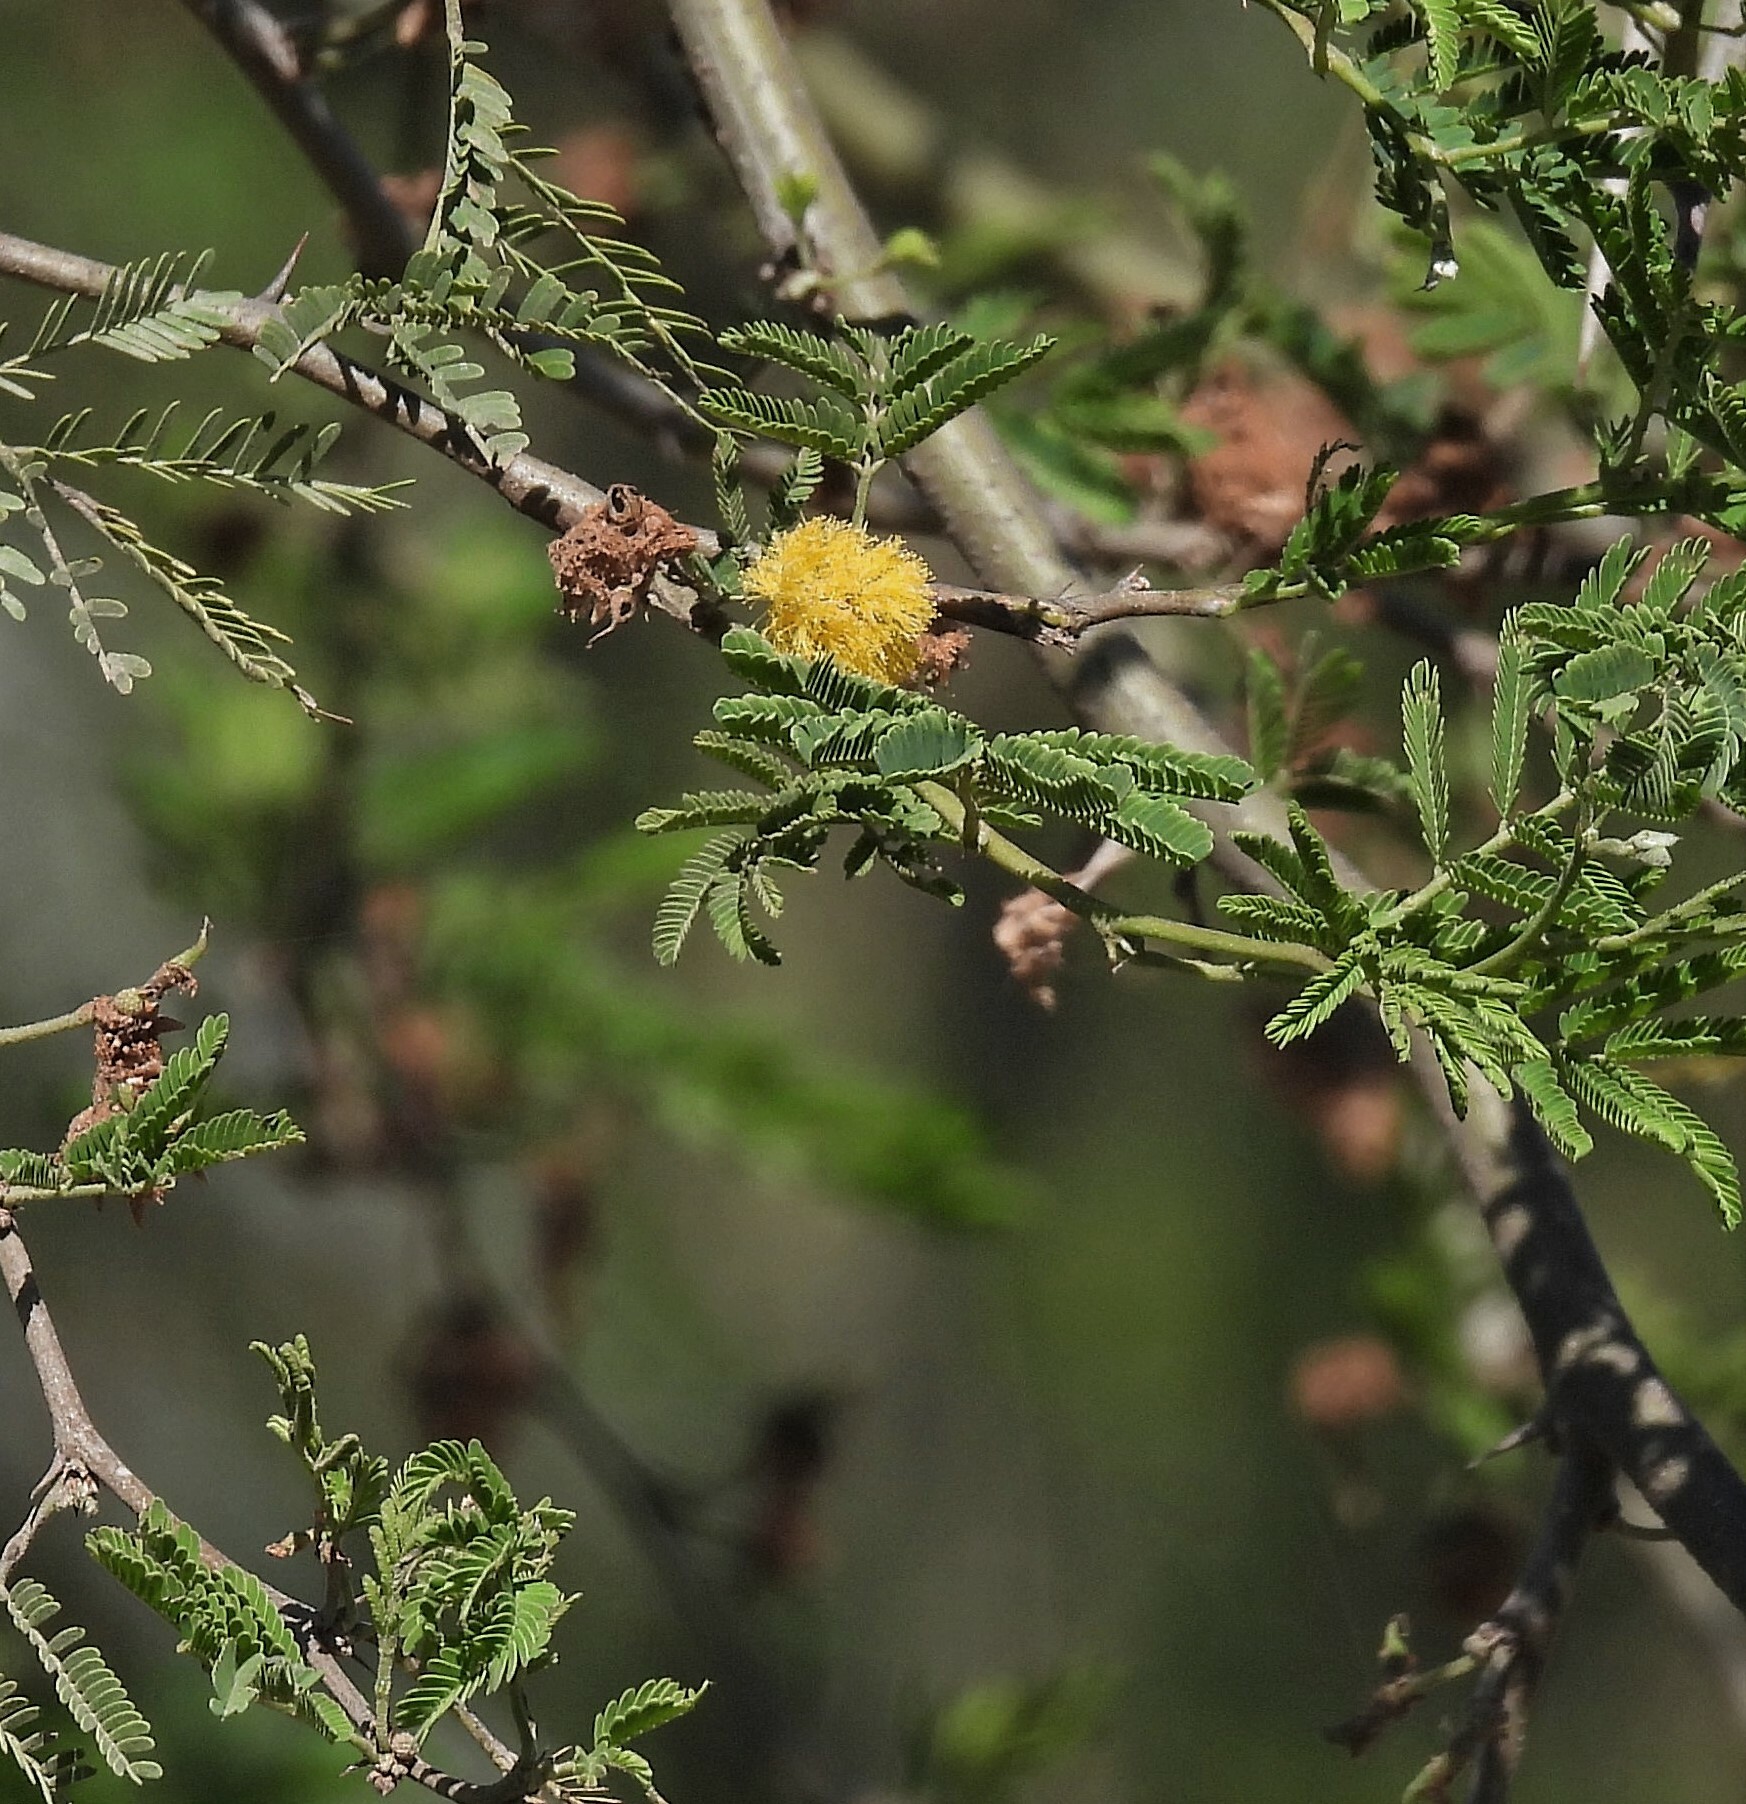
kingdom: Plantae
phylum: Tracheophyta
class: Magnoliopsida
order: Fabales
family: Fabaceae
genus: Vachellia
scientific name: Vachellia caven
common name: Roman cassie
